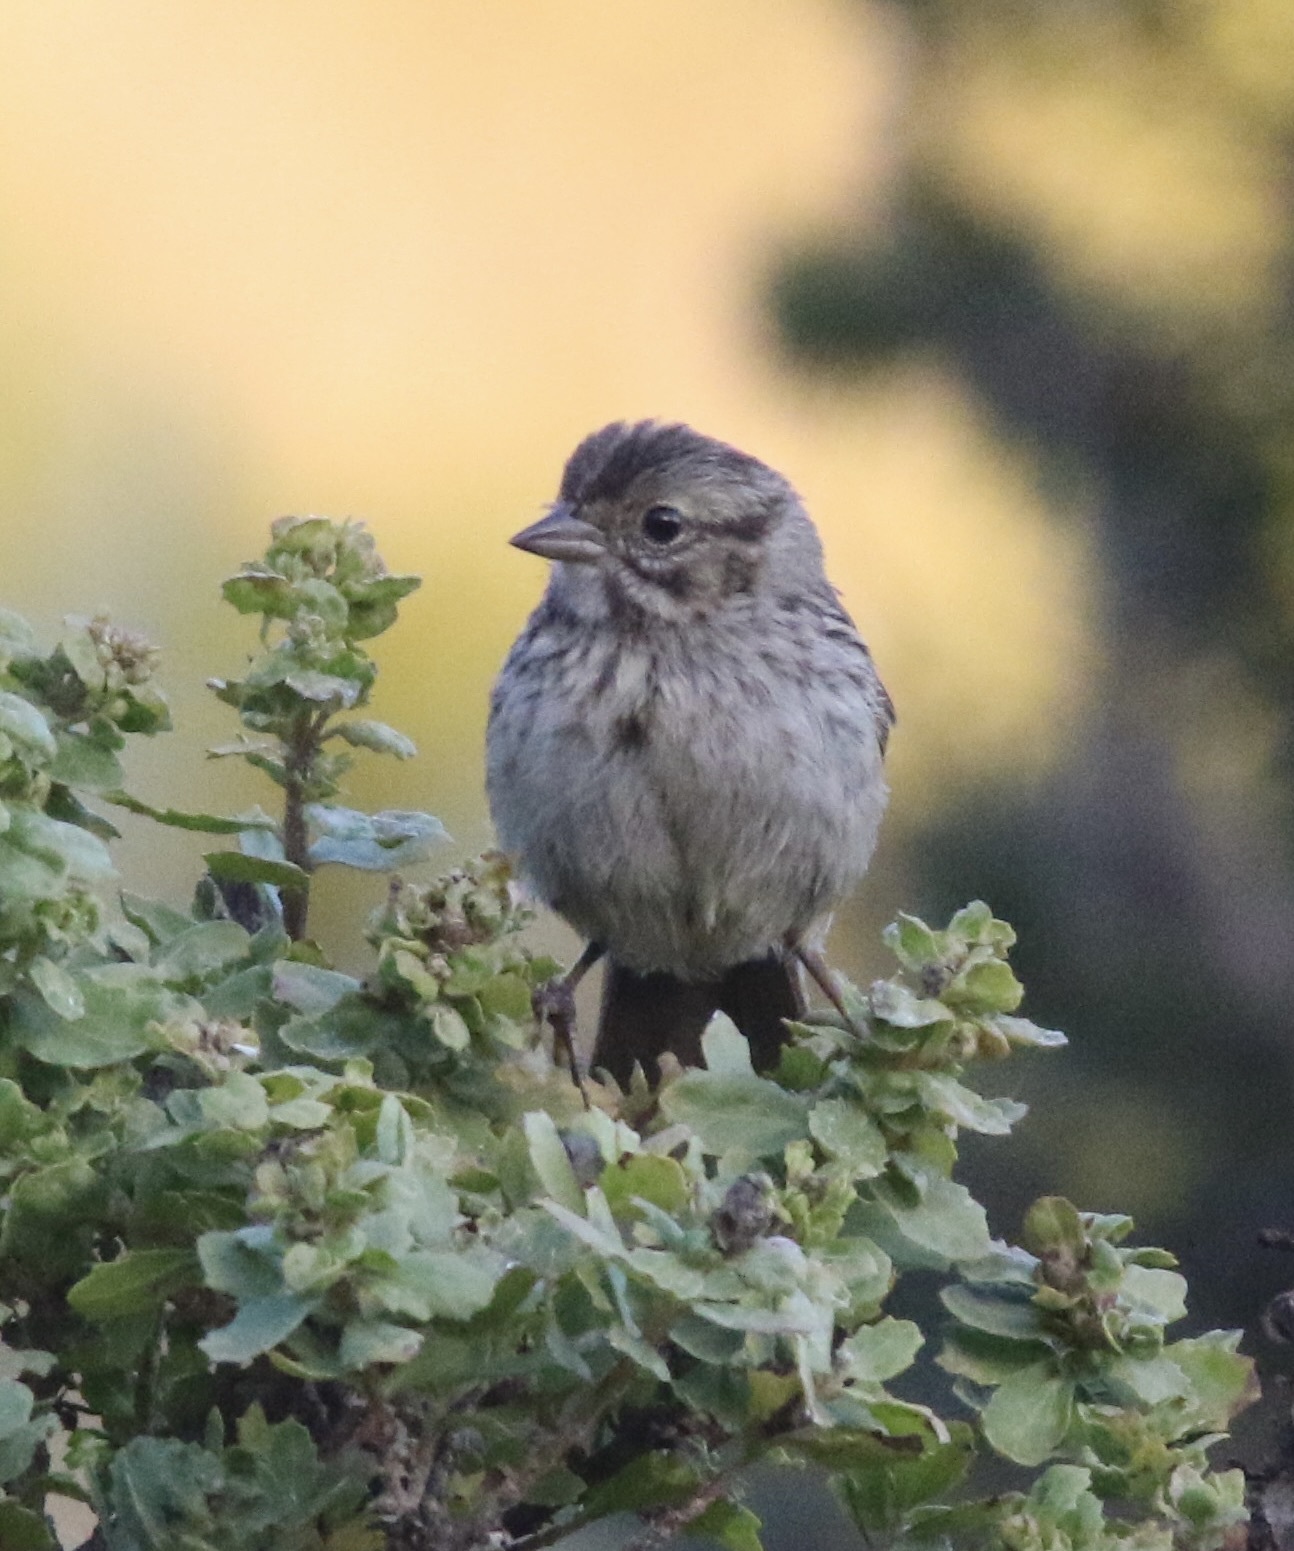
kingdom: Animalia
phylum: Chordata
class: Aves
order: Passeriformes
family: Passerellidae
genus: Melospiza
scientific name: Melospiza melodia
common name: Song sparrow
